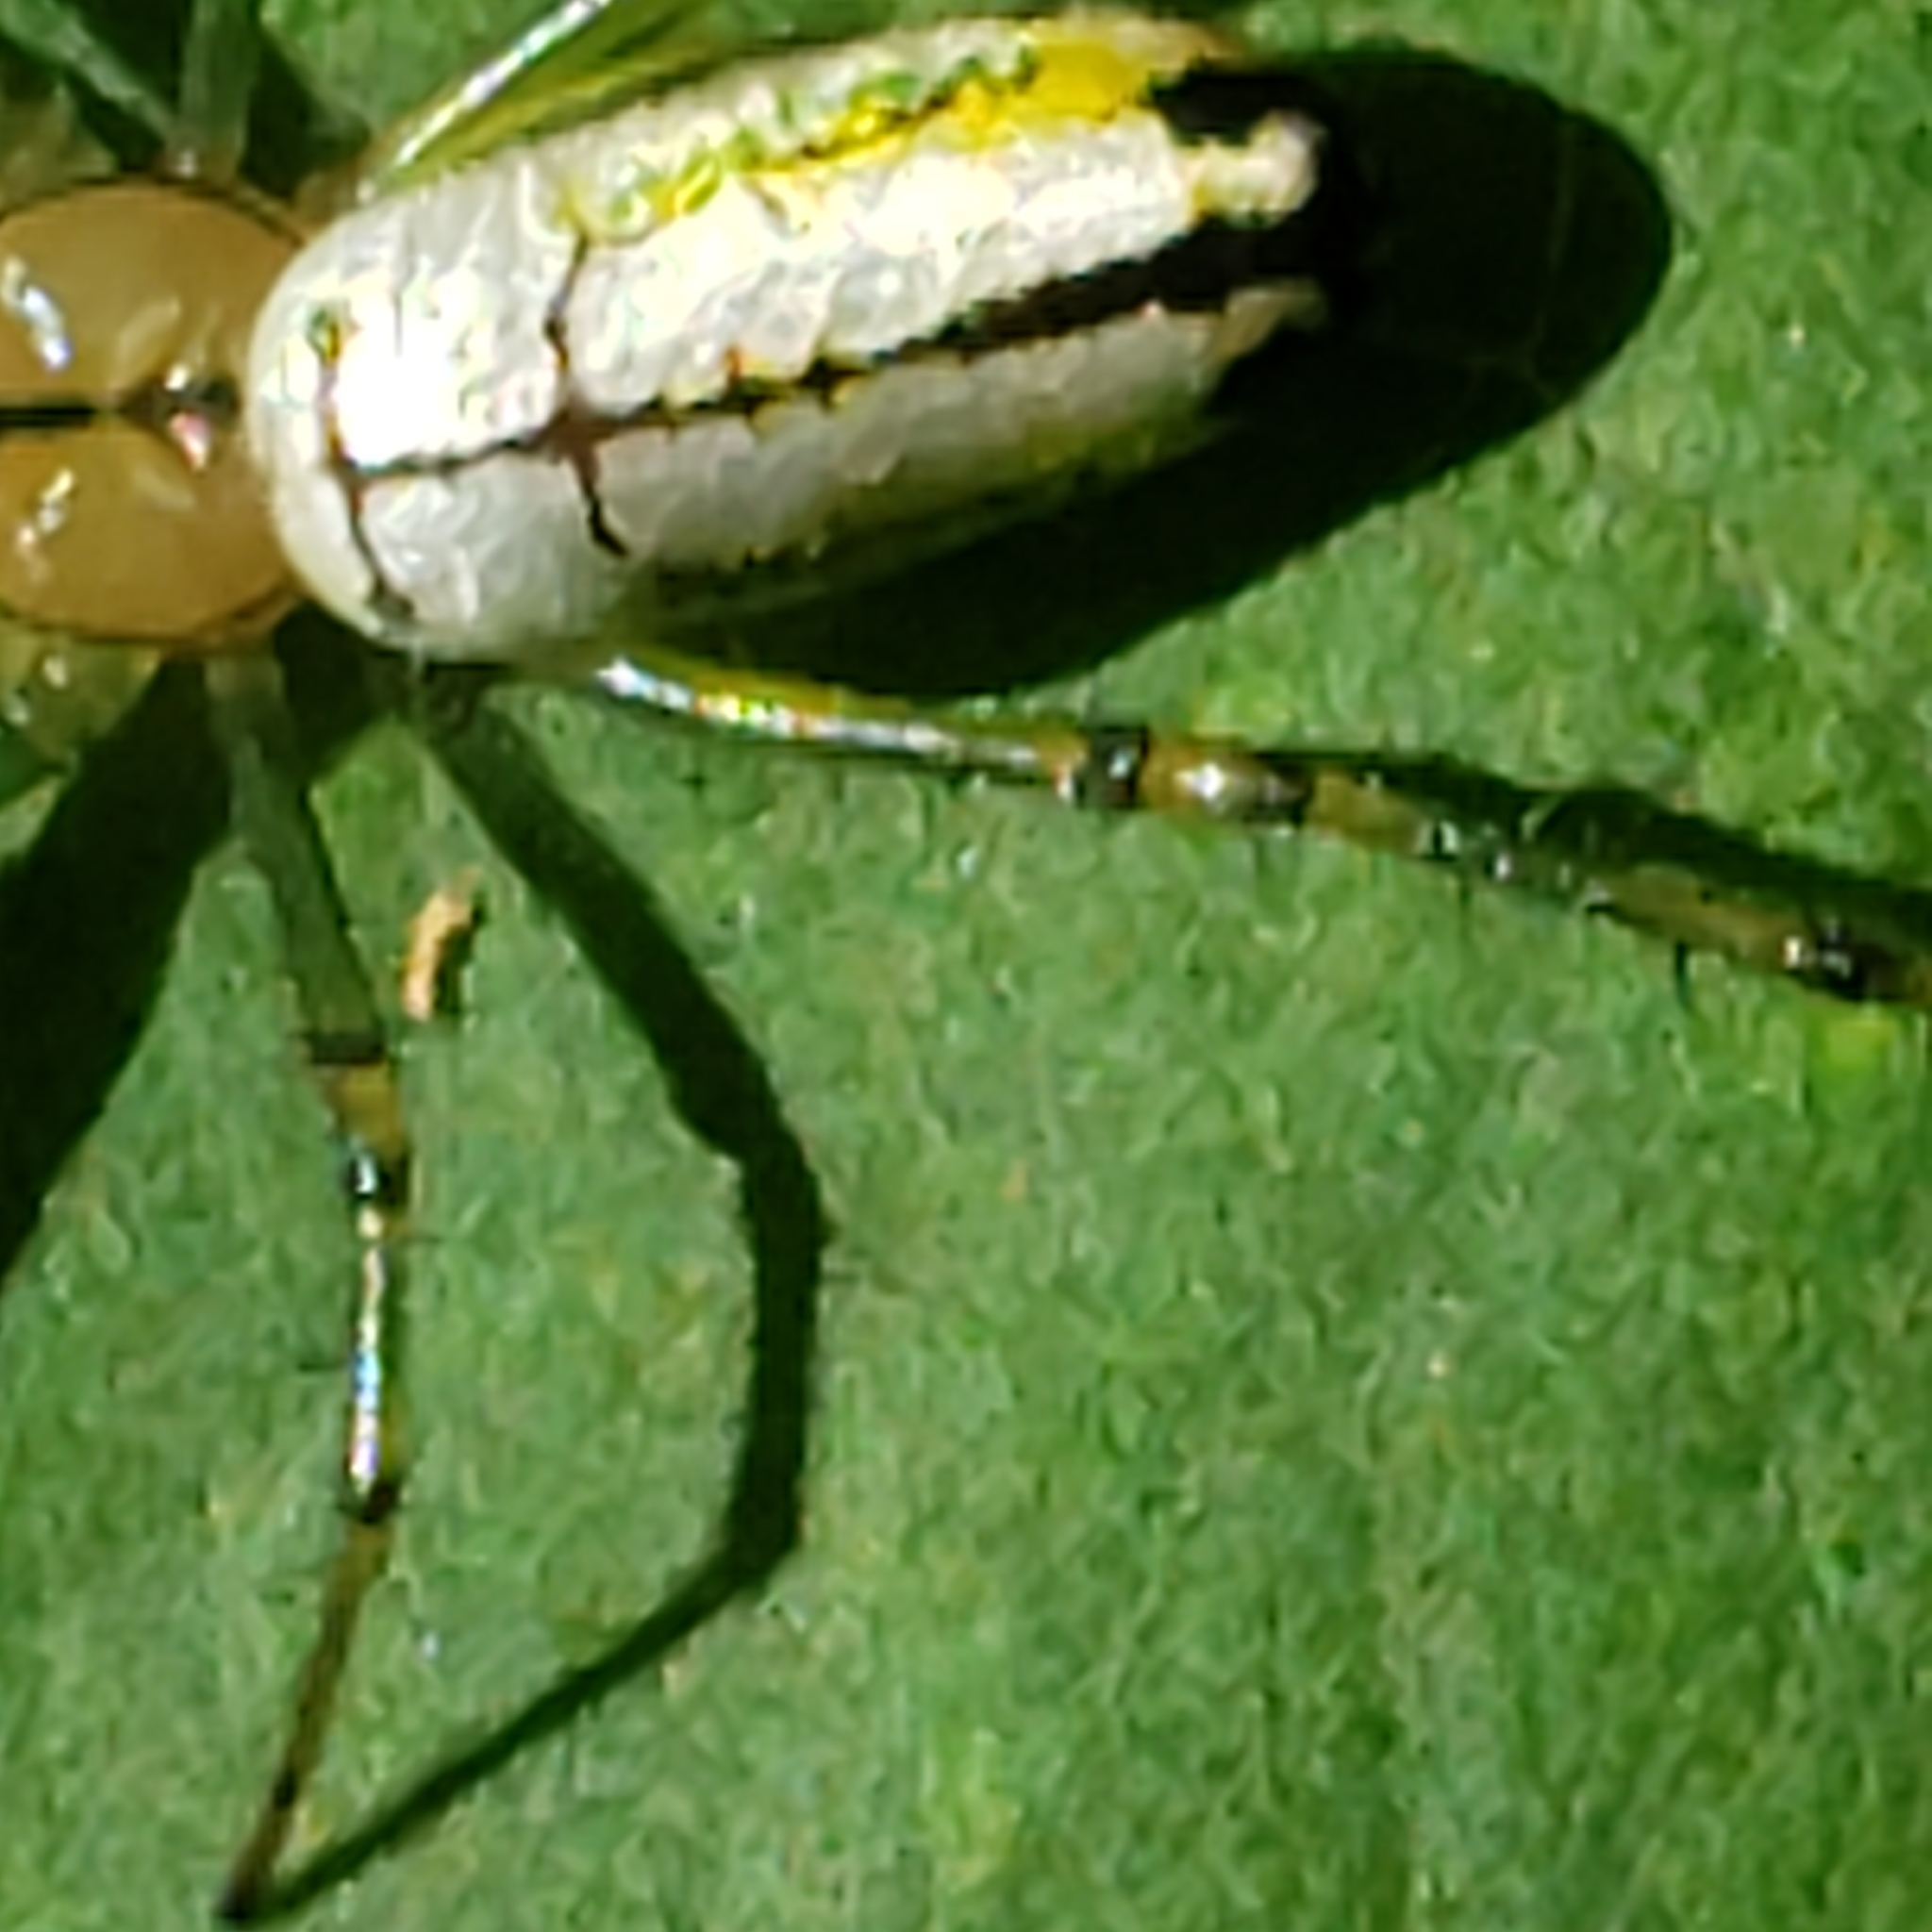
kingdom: Animalia
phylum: Arthropoda
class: Arachnida
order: Araneae
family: Tetragnathidae
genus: Leucauge
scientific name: Leucauge venusta
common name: Longjawed orb weavers
